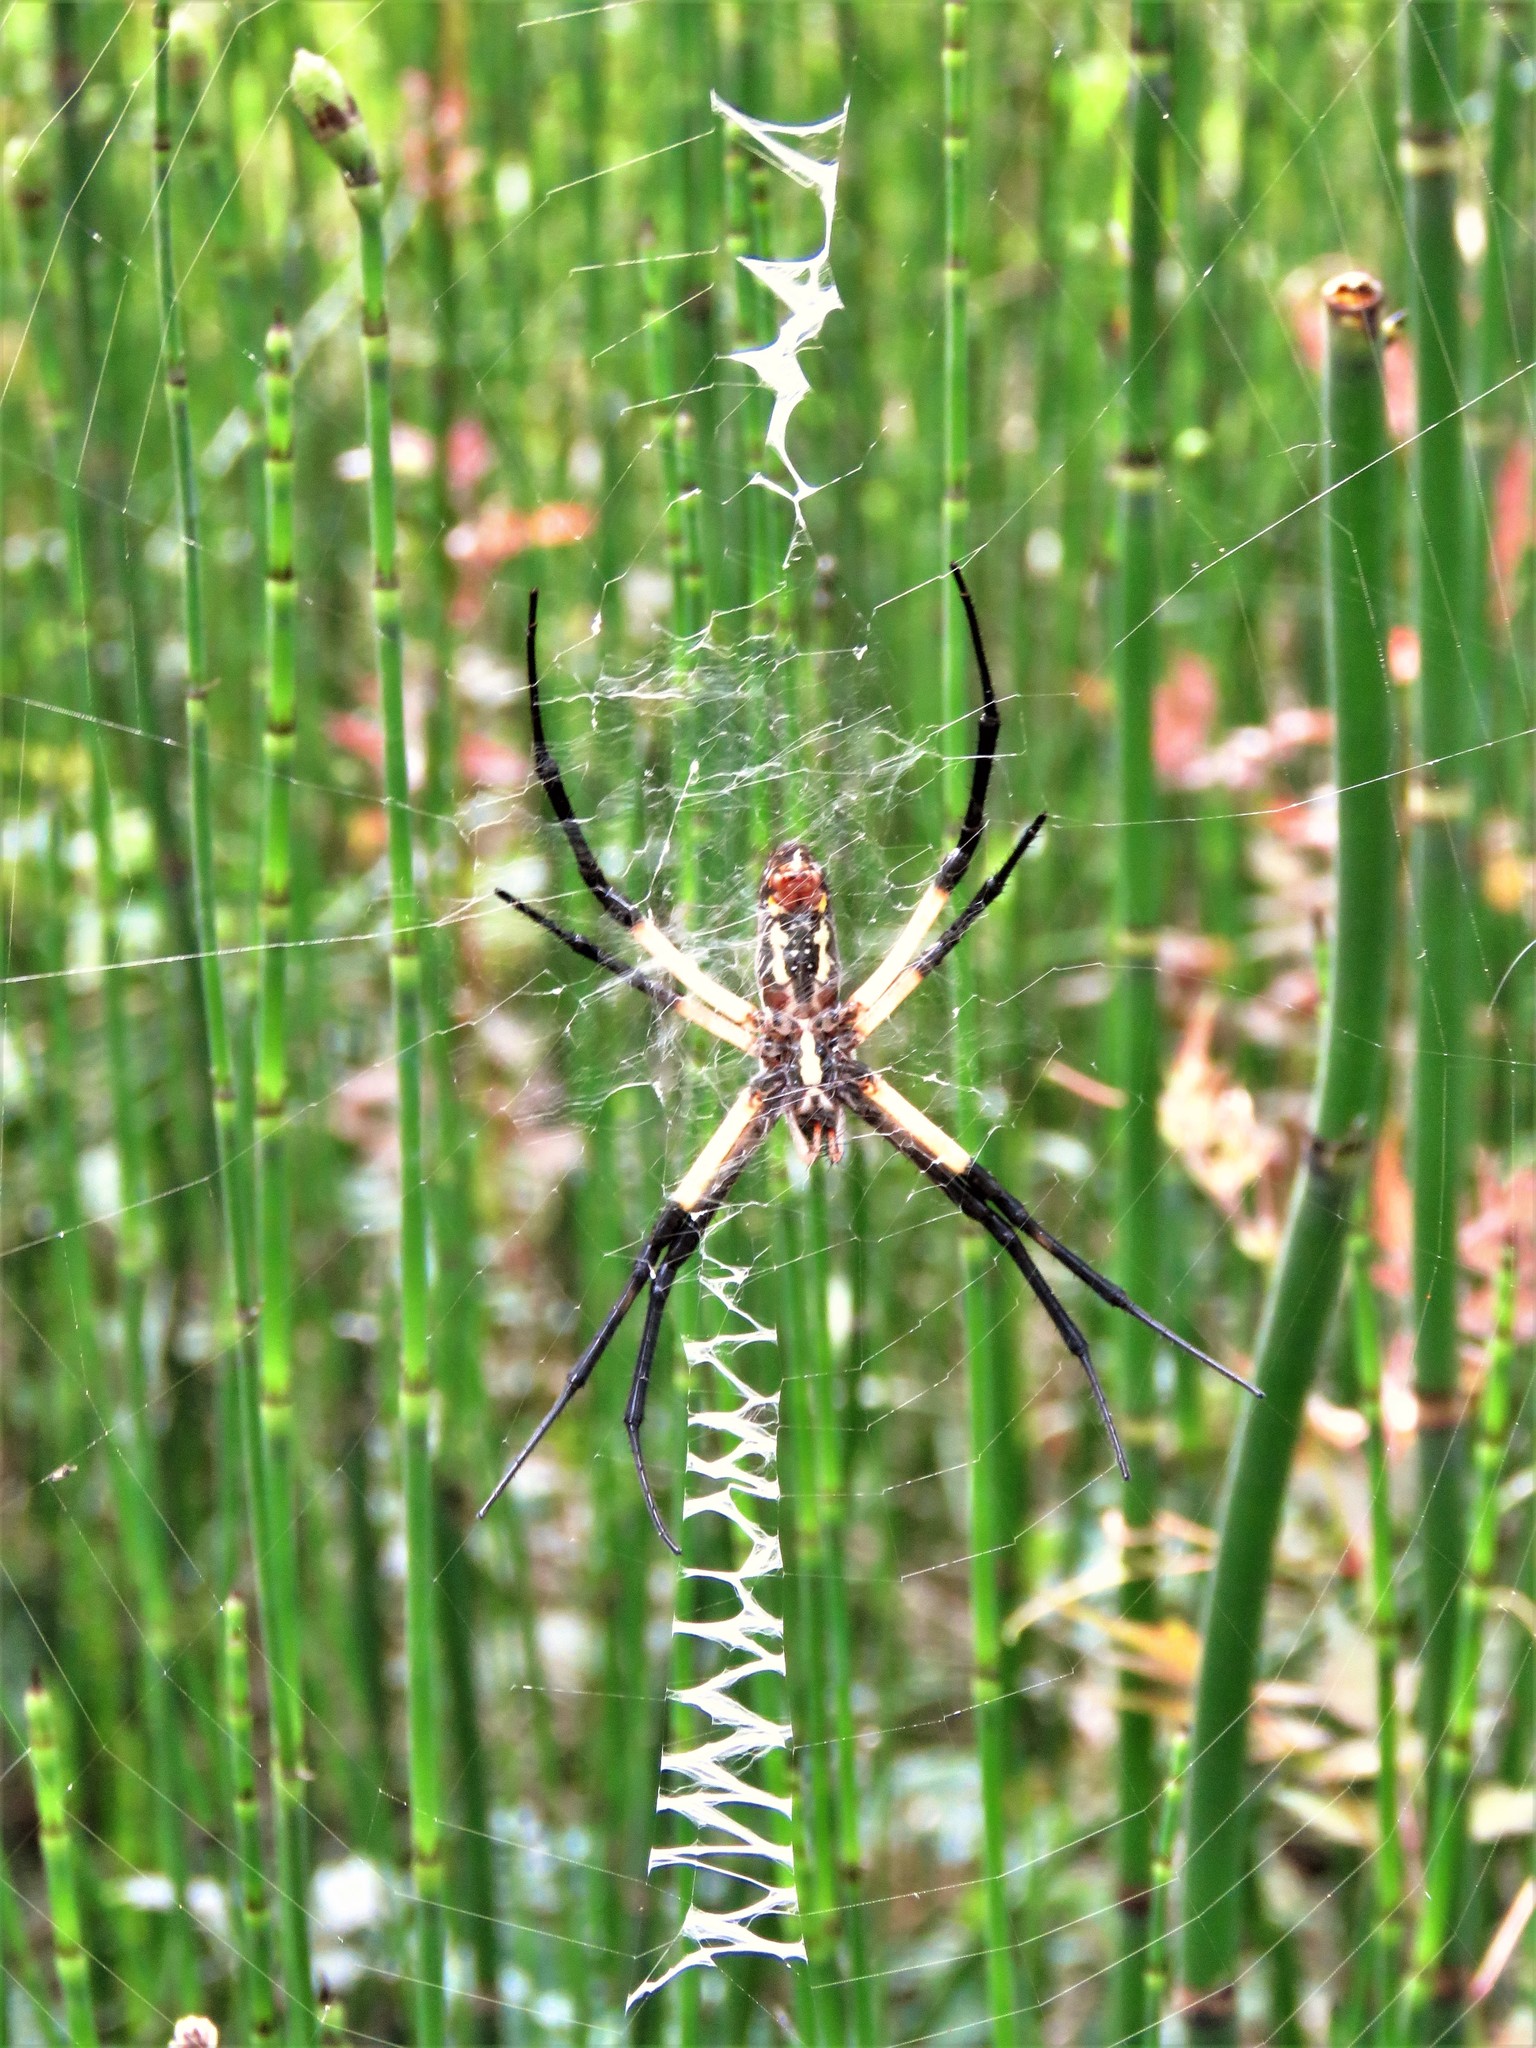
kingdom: Animalia
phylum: Arthropoda
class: Arachnida
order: Araneae
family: Araneidae
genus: Argiope
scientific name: Argiope aurantia
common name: Orb weavers
